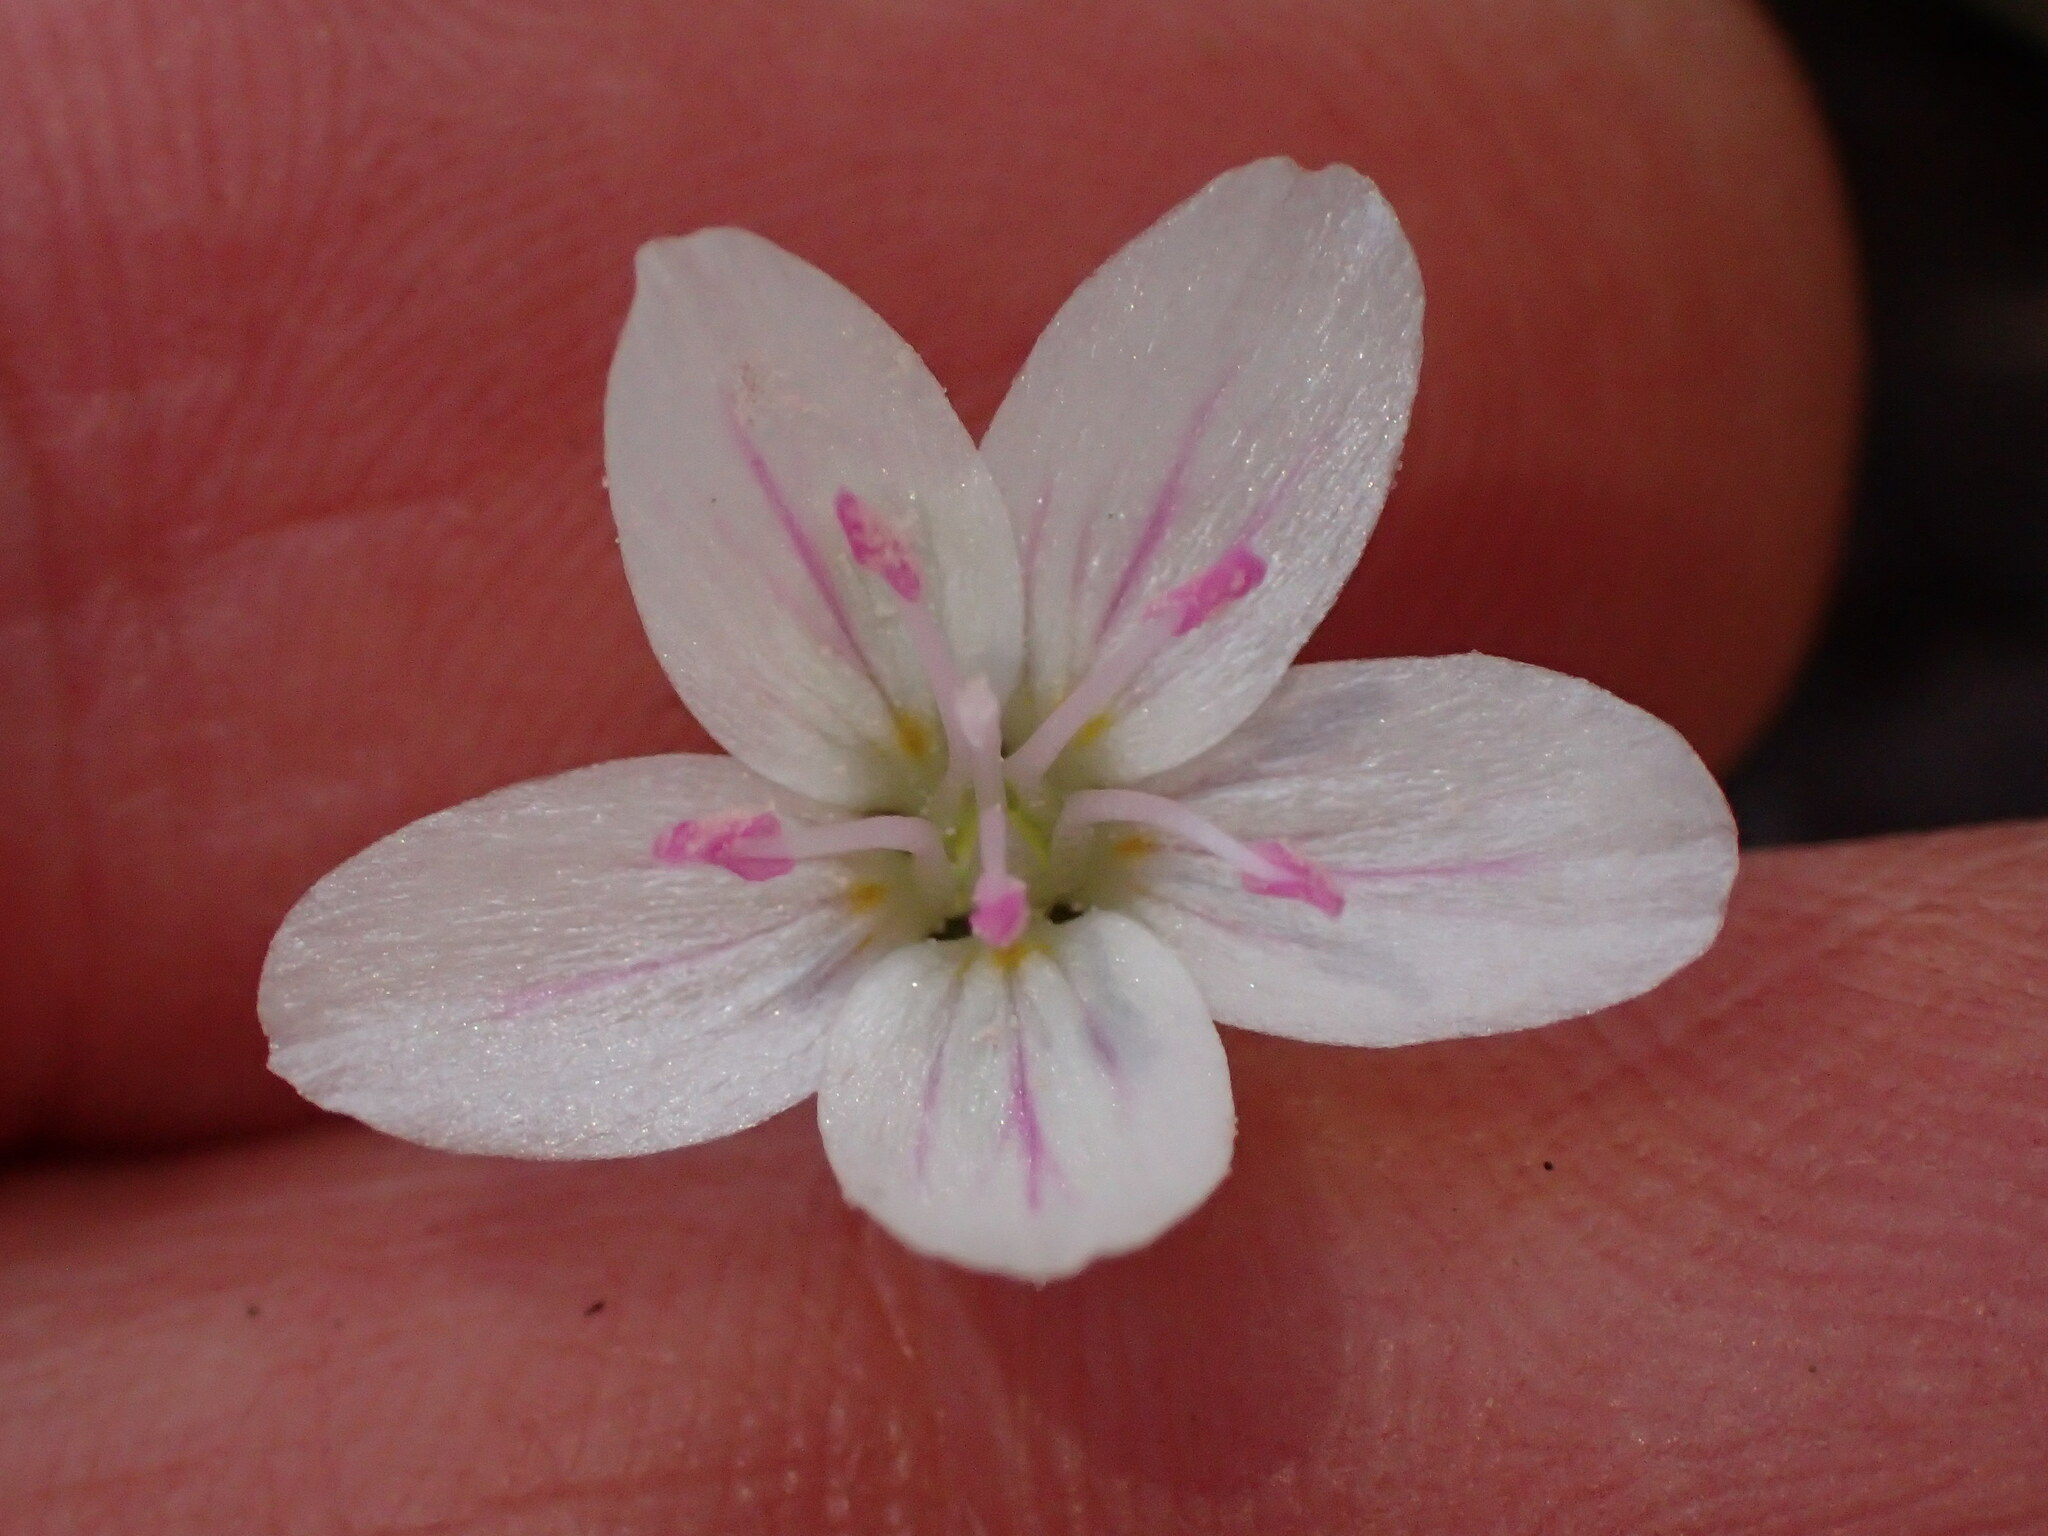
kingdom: Plantae
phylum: Tracheophyta
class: Magnoliopsida
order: Caryophyllales
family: Montiaceae
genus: Claytonia
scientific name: Claytonia virginica
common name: Virginia springbeauty
